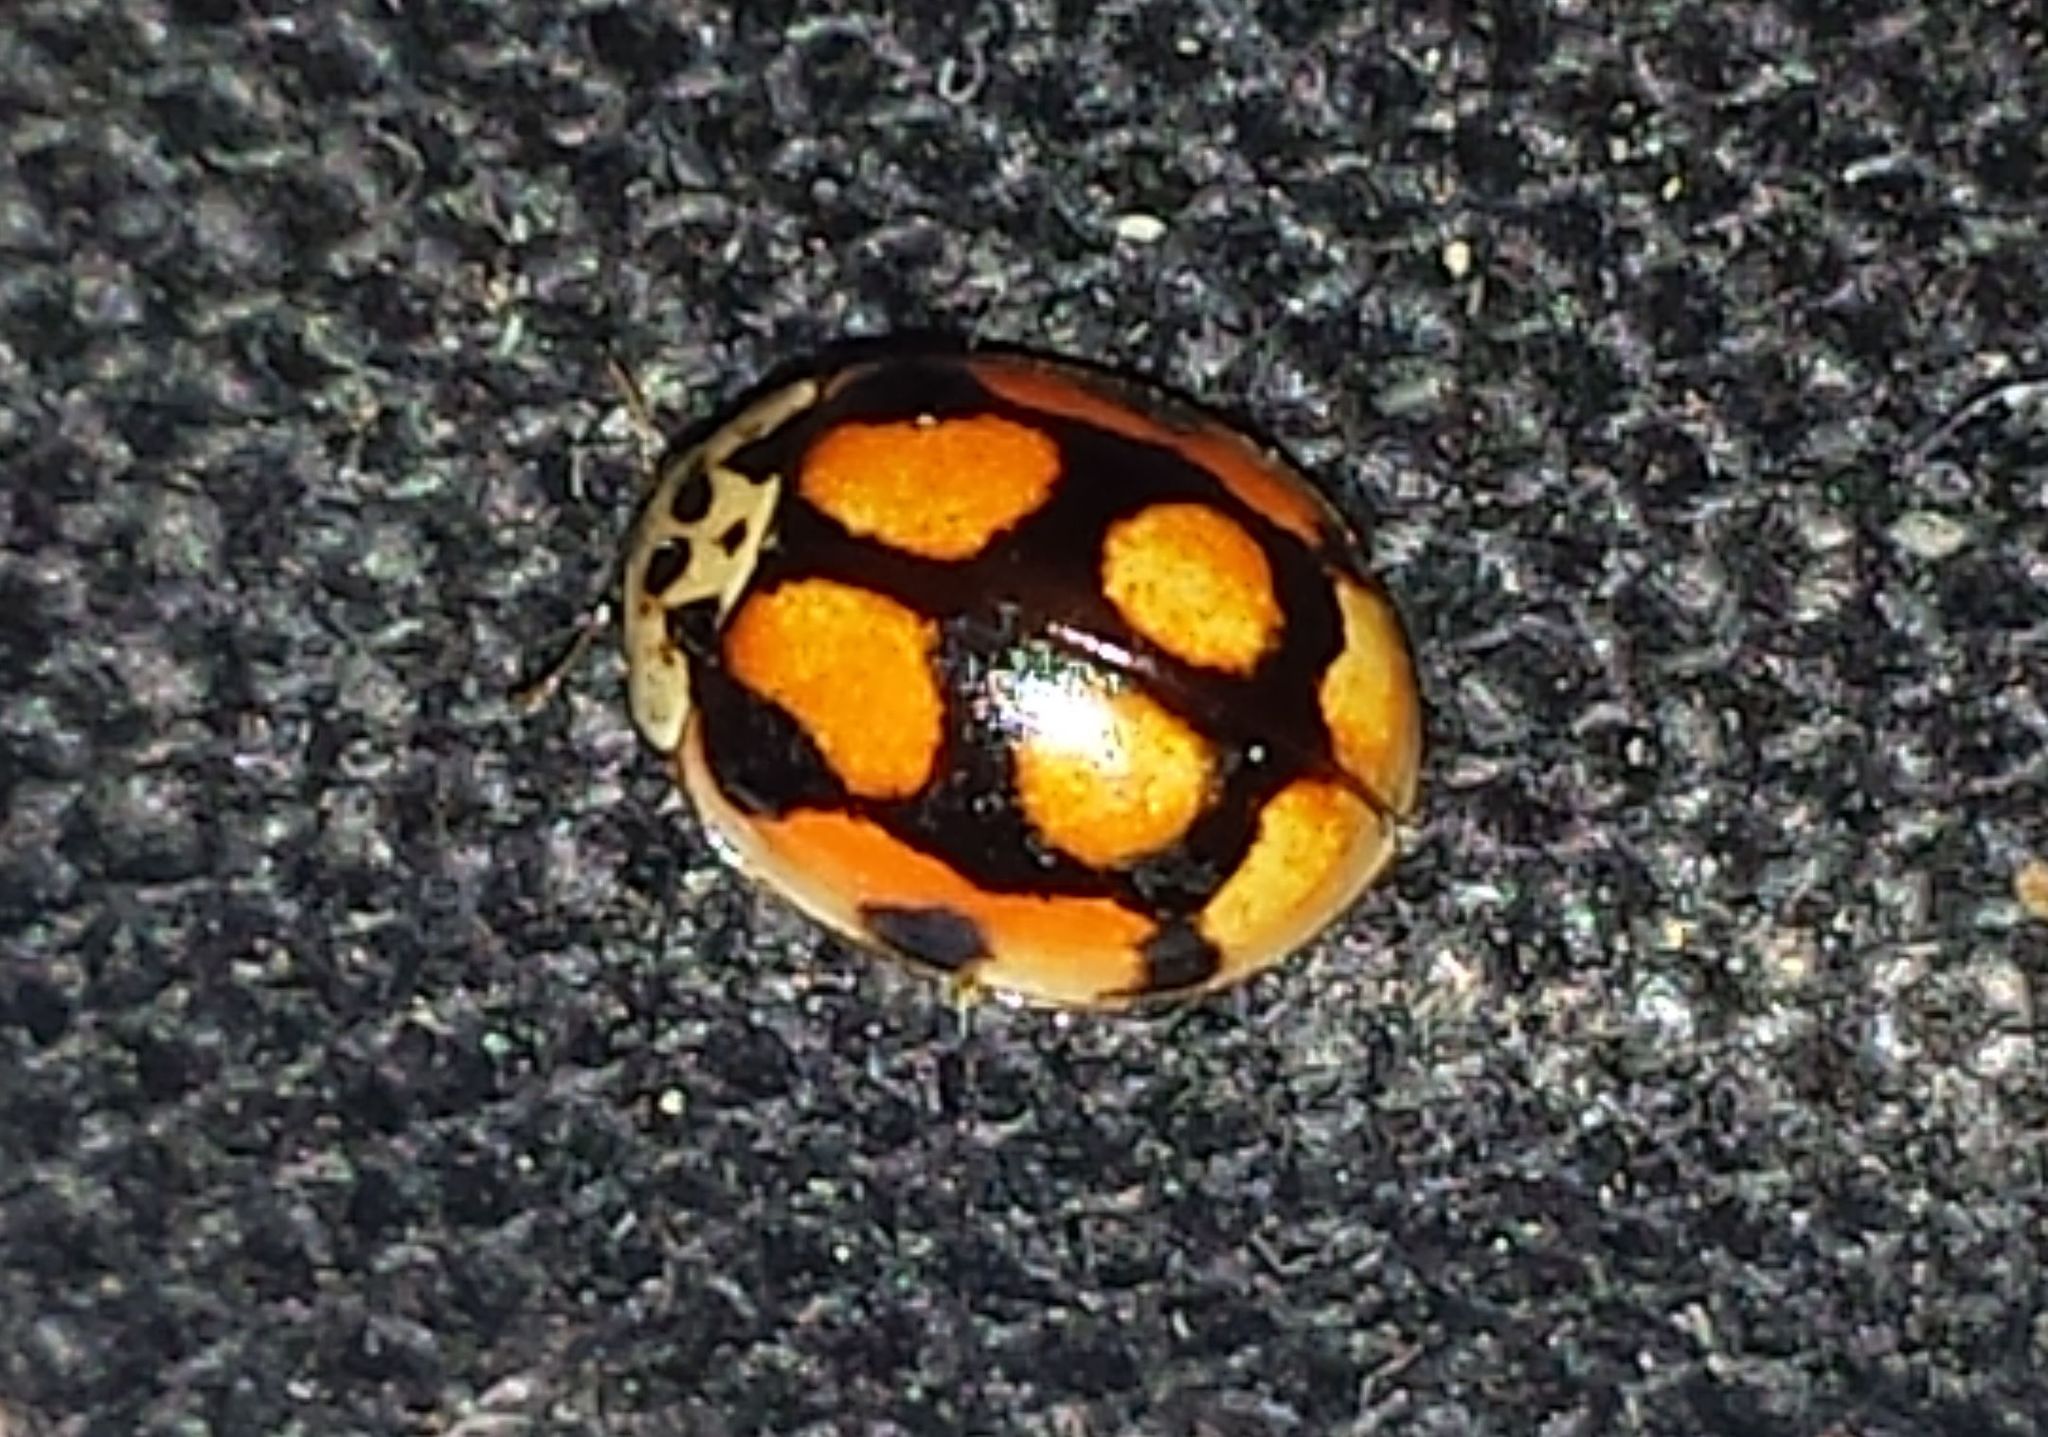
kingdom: Animalia
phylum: Arthropoda
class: Insecta
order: Coleoptera
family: Coccinellidae
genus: Adalia
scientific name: Adalia decempunctata
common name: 10-spot ladybird
